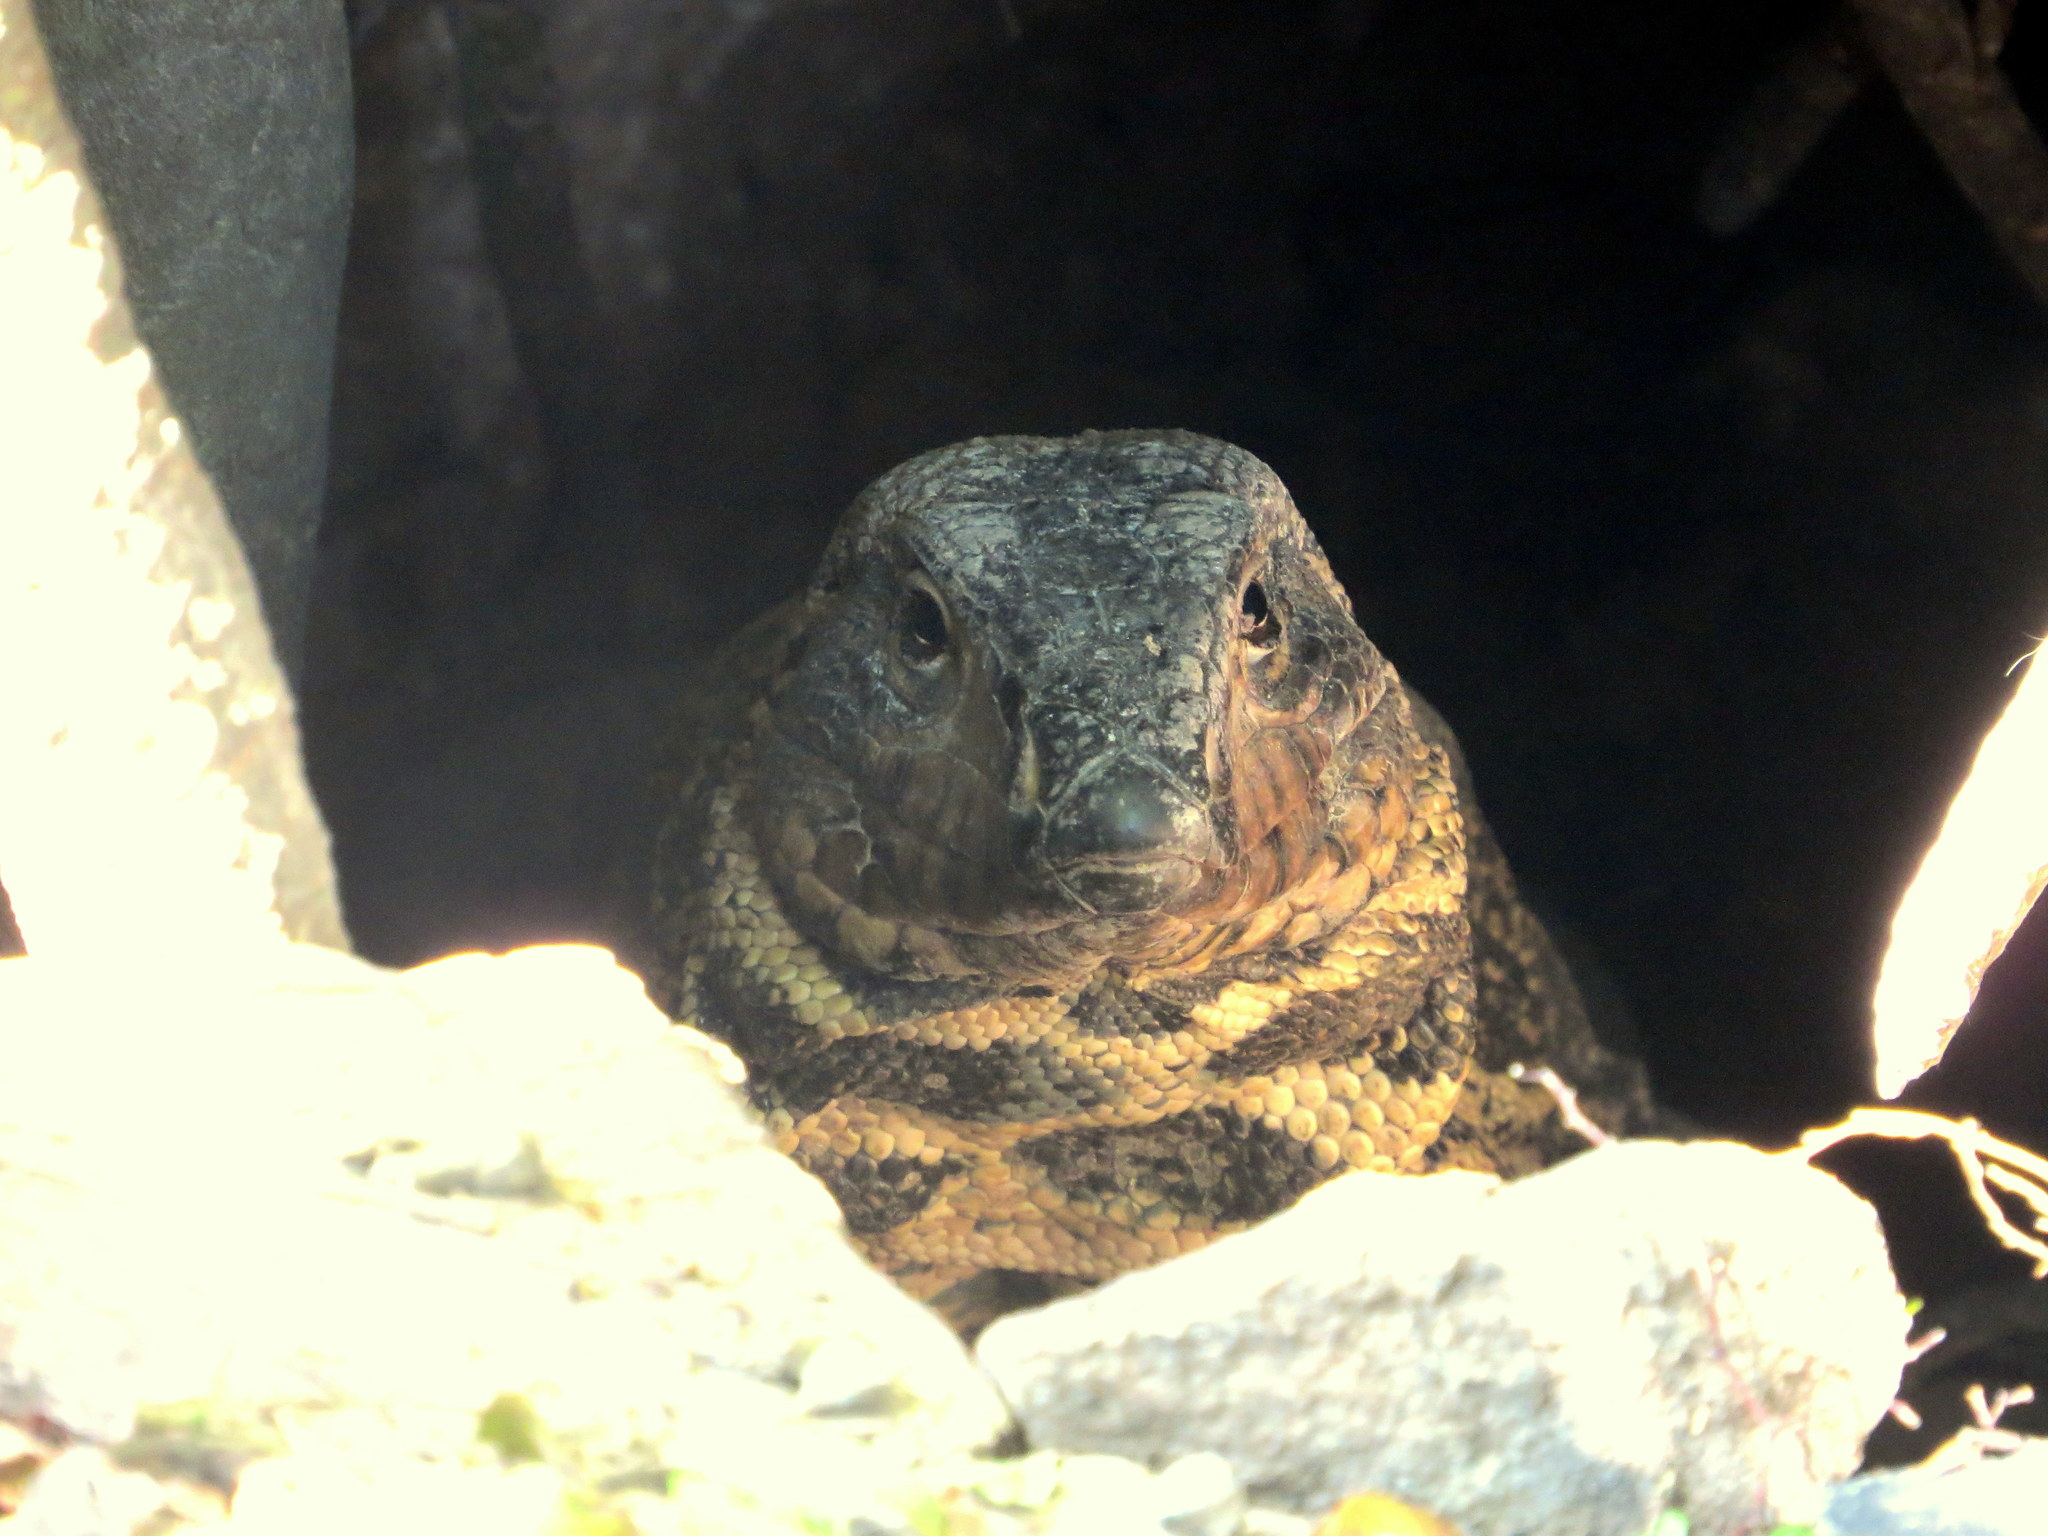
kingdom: Animalia
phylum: Chordata
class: Squamata
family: Teiidae
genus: Salvator
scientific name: Salvator merianae
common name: Argentine black and white tegu
